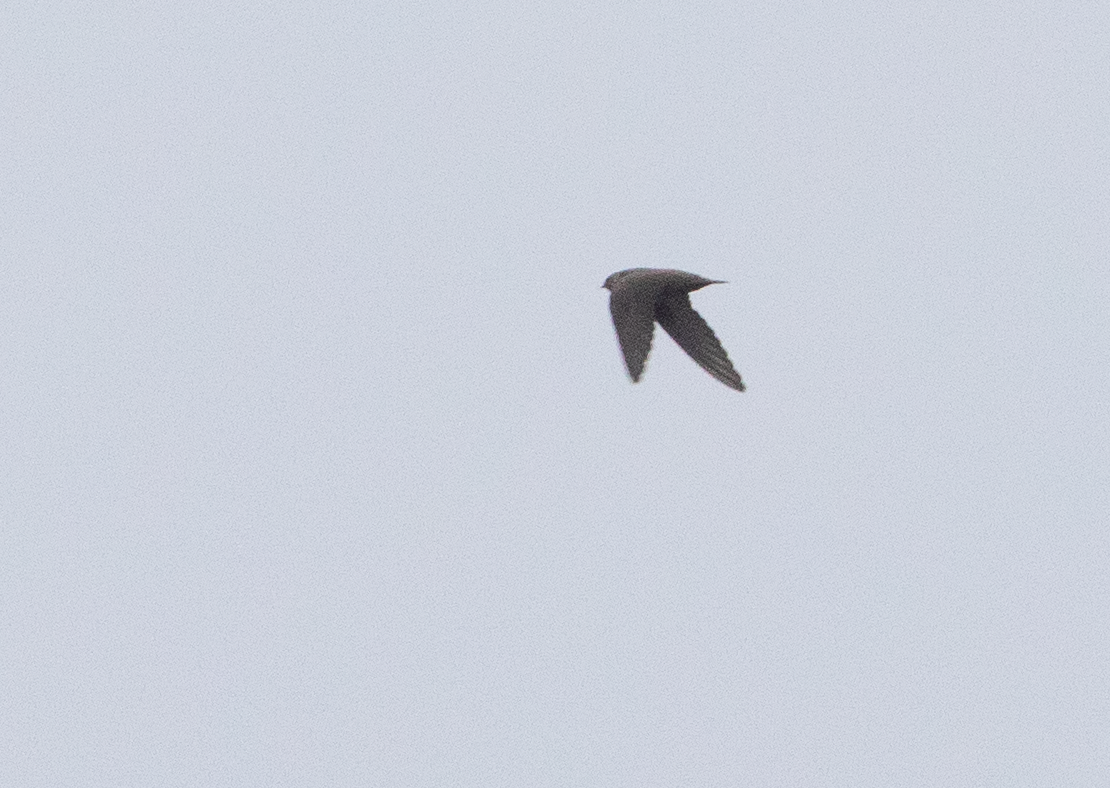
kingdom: Animalia
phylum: Chordata
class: Aves
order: Passeriformes
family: Hirundinidae
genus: Ptyonoprogne
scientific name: Ptyonoprogne rupestris
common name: Eurasian crag martin
